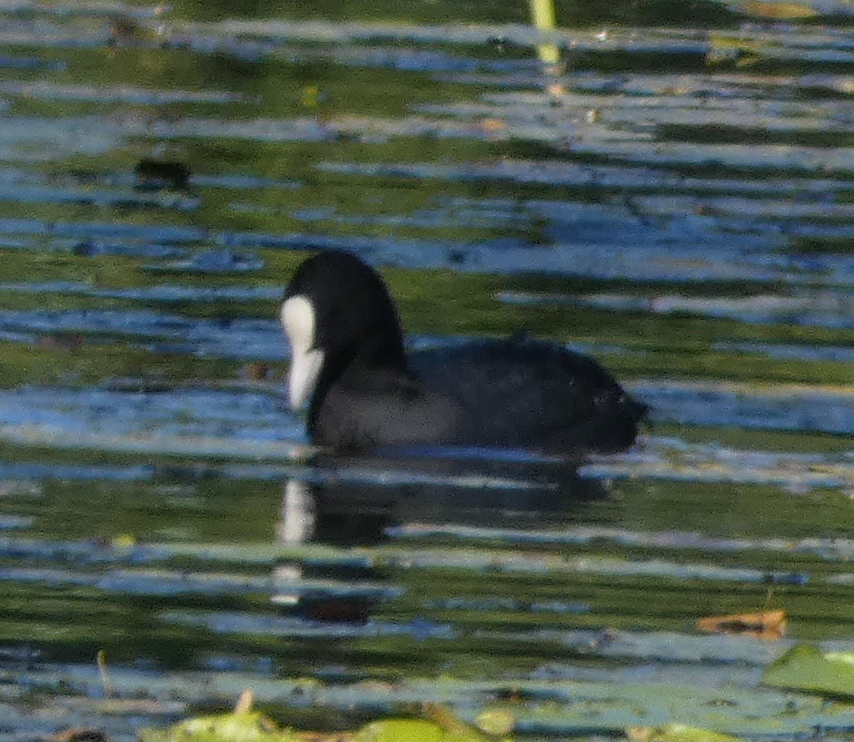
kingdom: Animalia
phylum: Chordata
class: Aves
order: Gruiformes
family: Rallidae
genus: Fulica
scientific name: Fulica atra
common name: Eurasian coot
